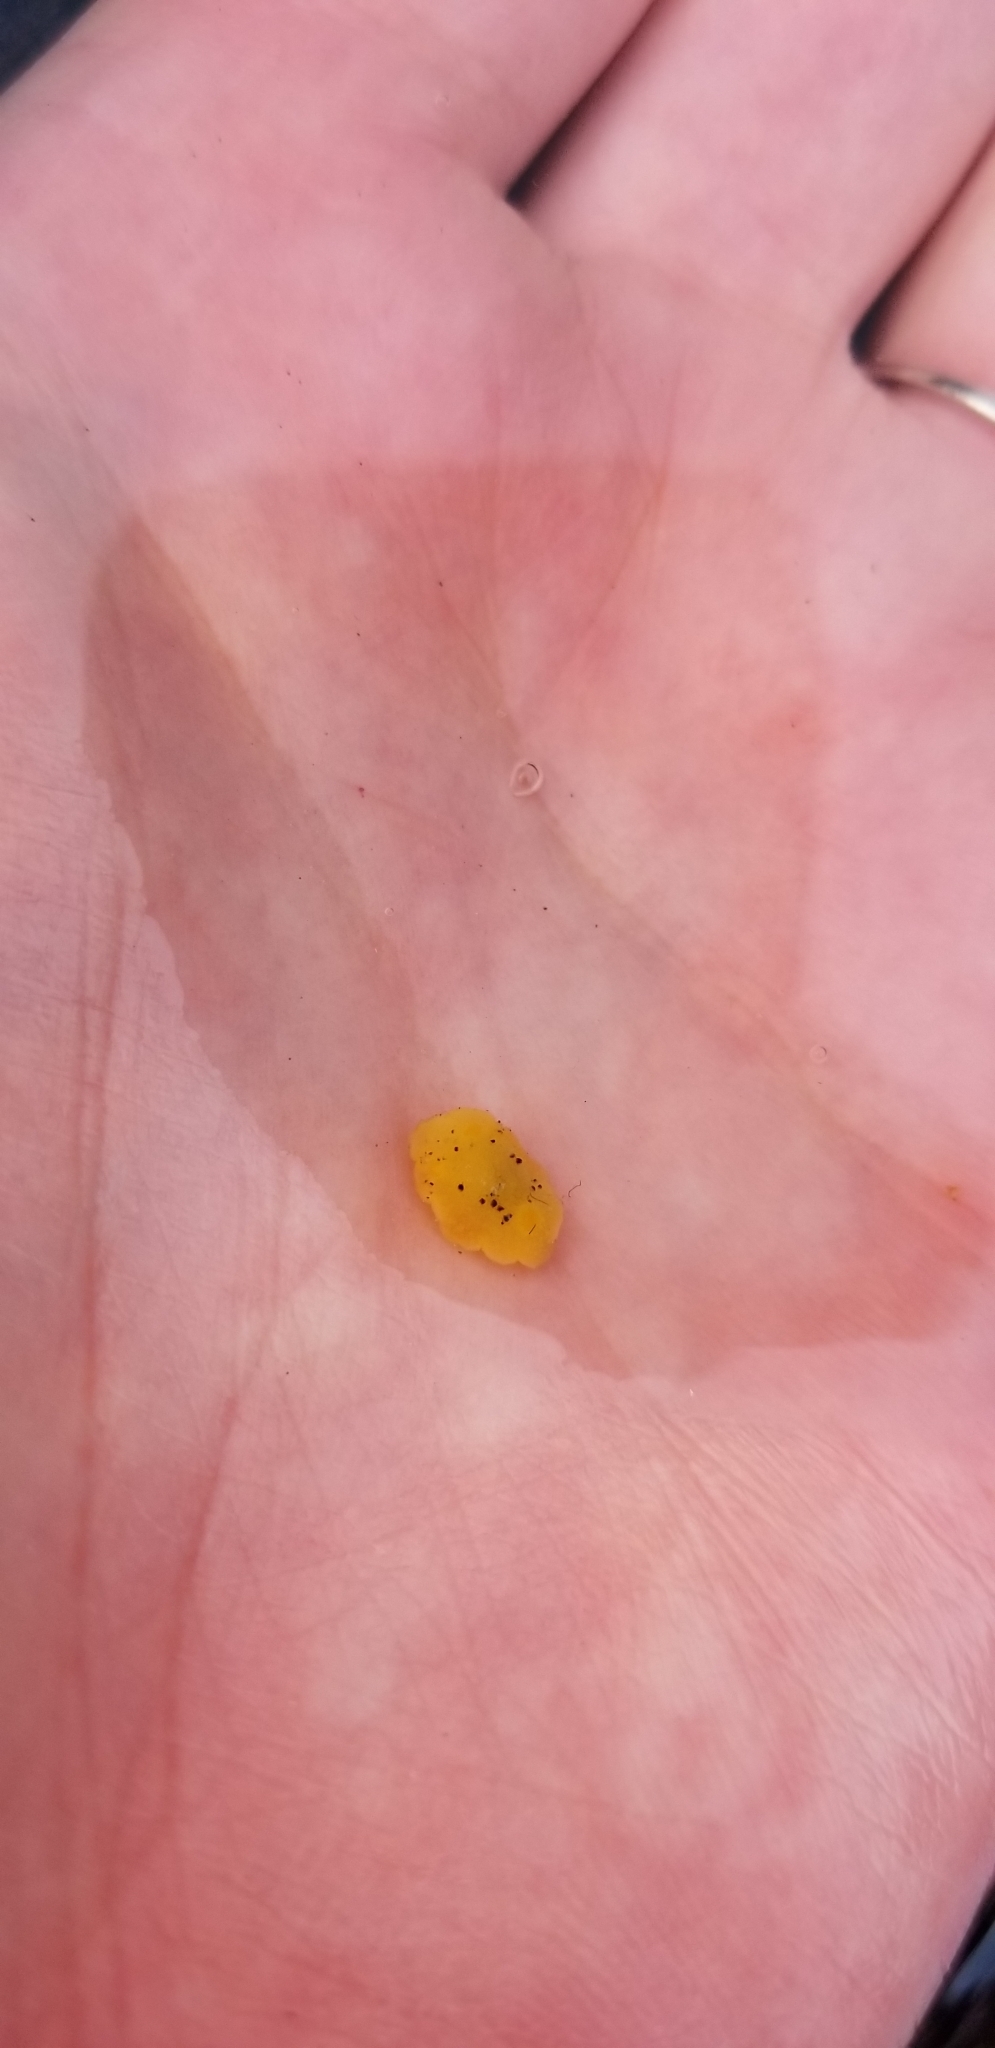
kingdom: Animalia
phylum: Mollusca
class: Gastropoda
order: Nudibranchia
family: Dorididae
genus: Doris
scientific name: Doris montereyensis
